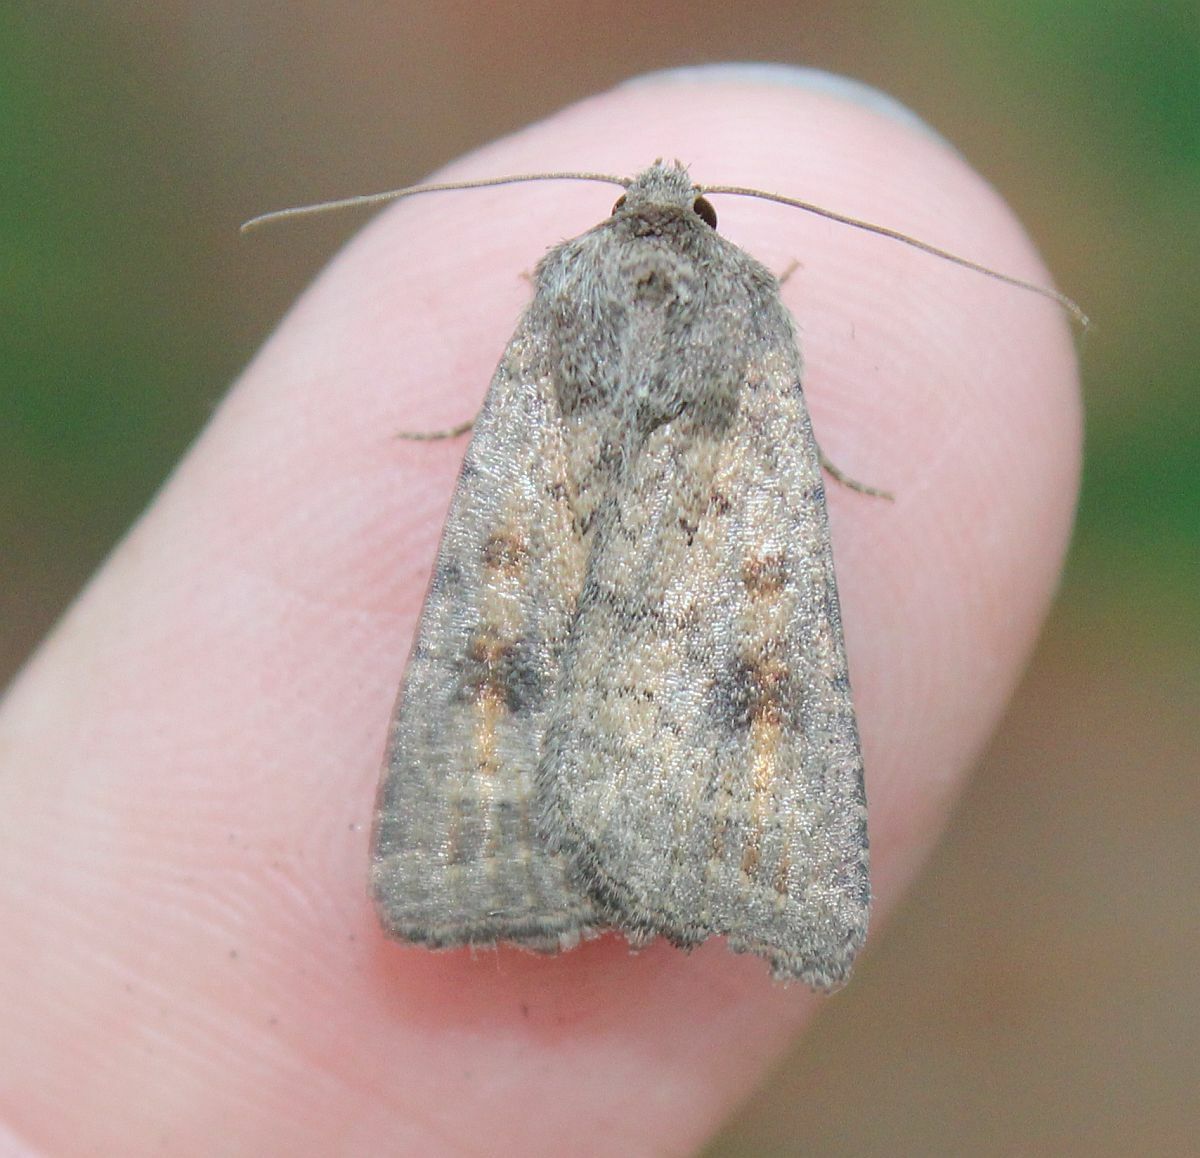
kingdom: Animalia
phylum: Arthropoda
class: Insecta
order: Lepidoptera
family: Noctuidae
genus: Caradrina
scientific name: Caradrina morpheus
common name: Mottled rustic
